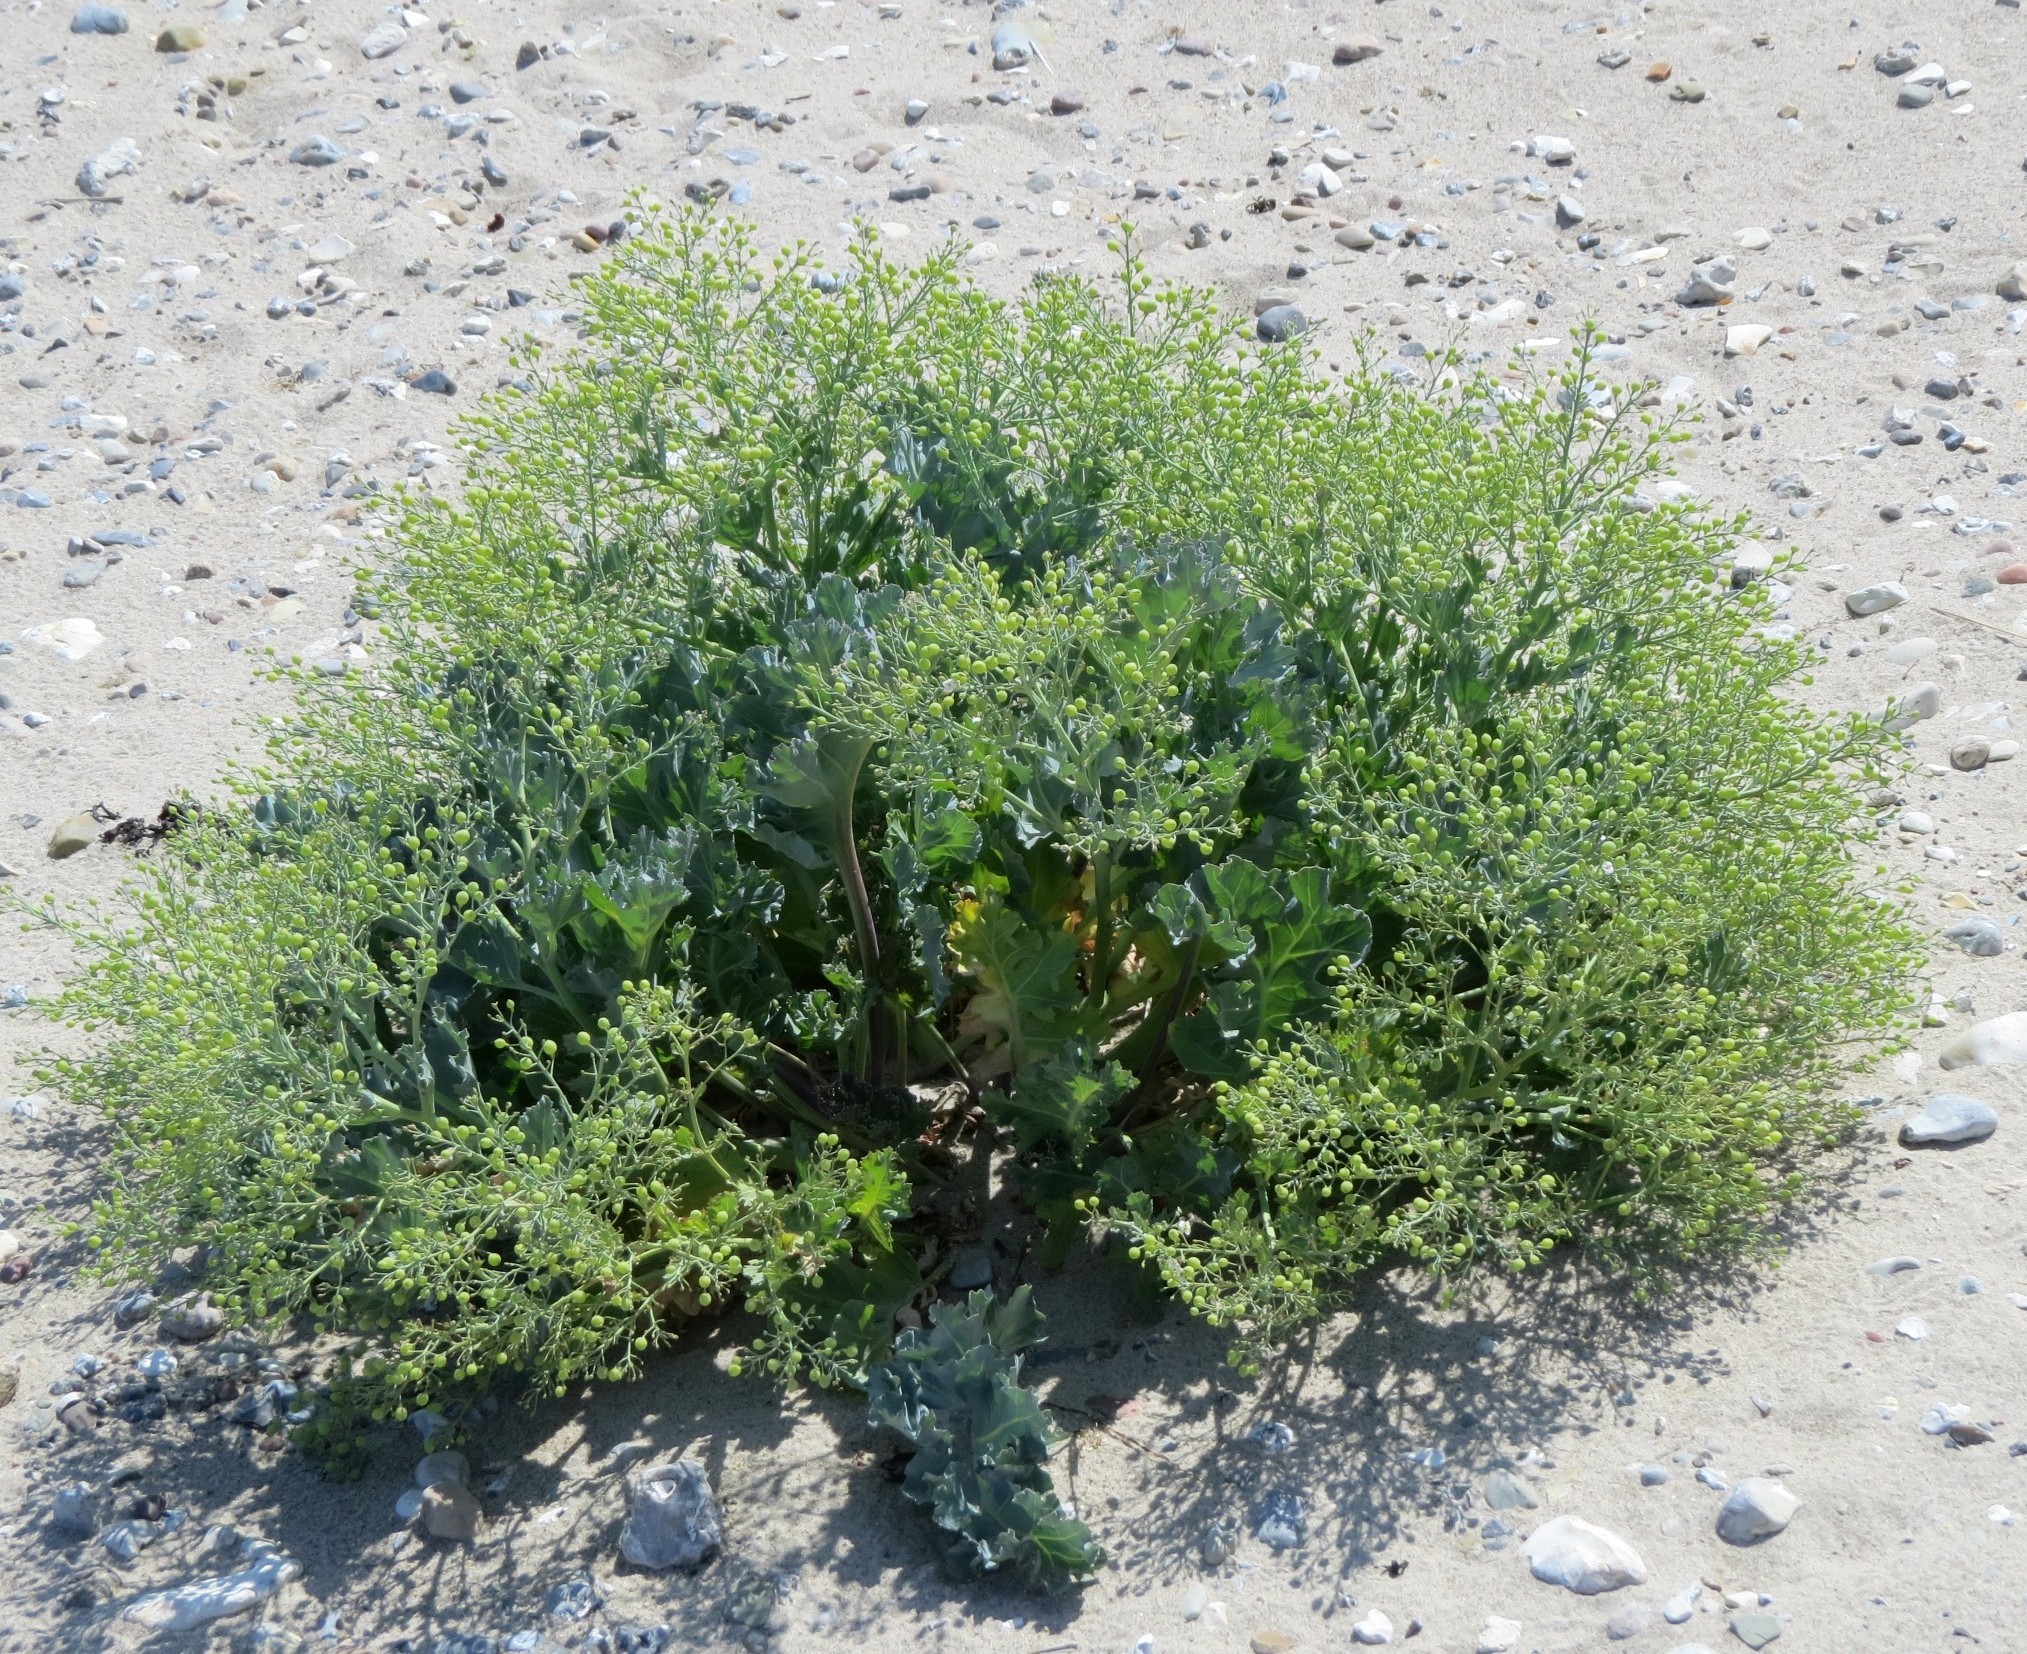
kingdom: Plantae
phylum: Tracheophyta
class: Magnoliopsida
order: Brassicales
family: Brassicaceae
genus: Crambe
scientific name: Crambe maritima
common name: Sea-kale
